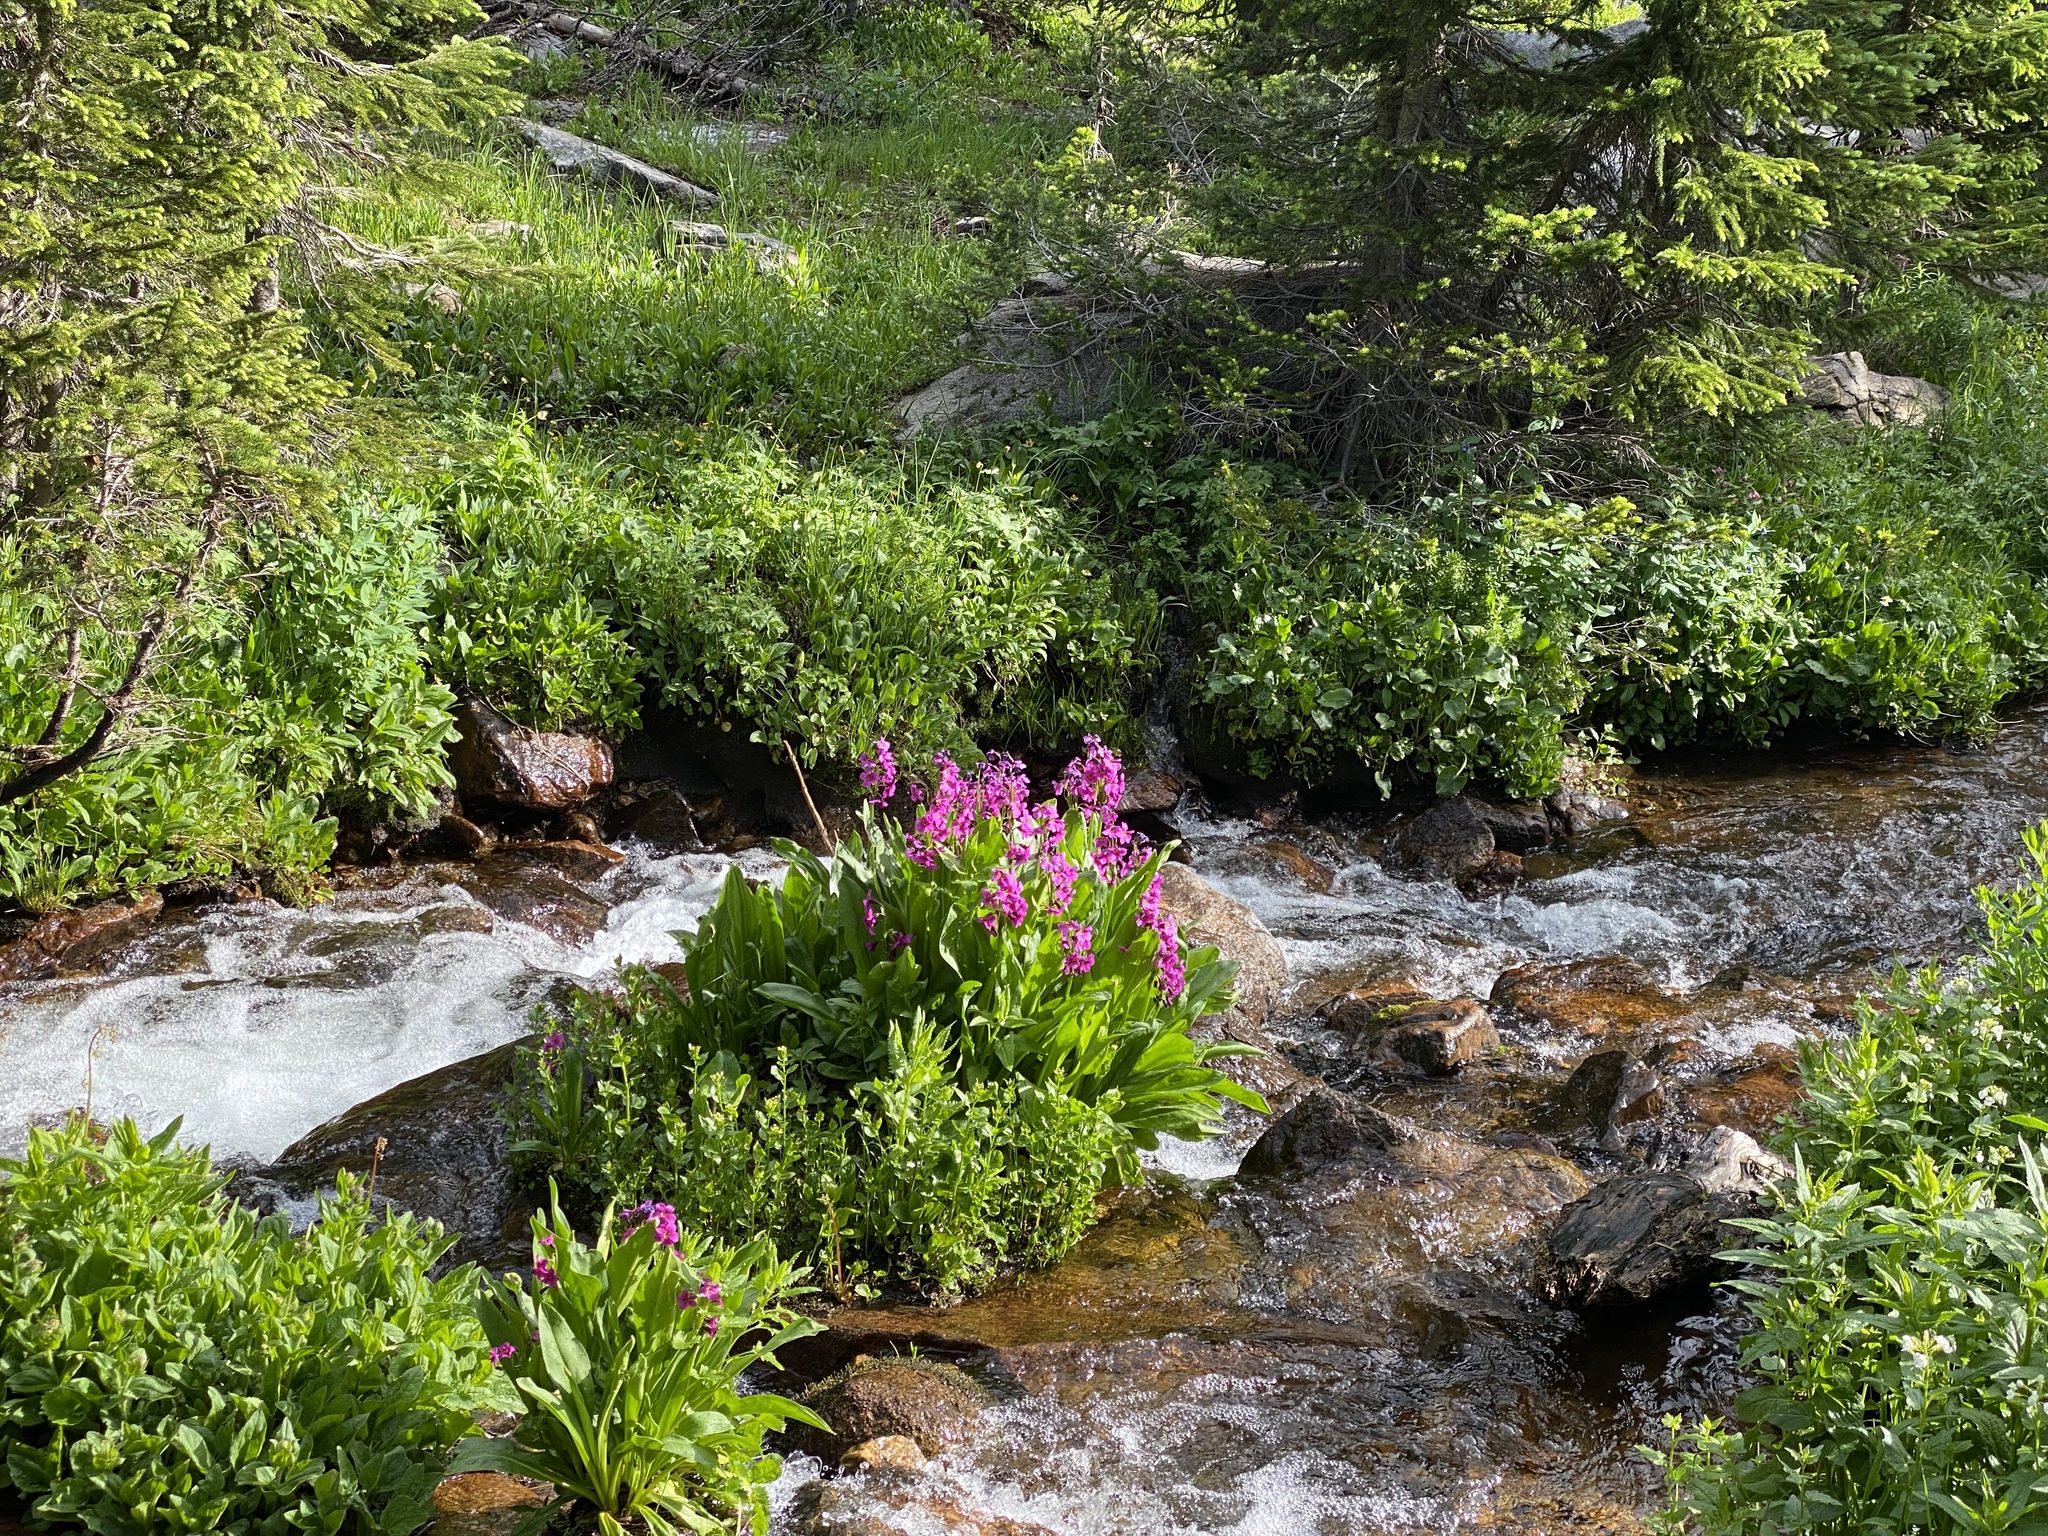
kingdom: Plantae
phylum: Tracheophyta
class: Magnoliopsida
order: Ericales
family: Primulaceae
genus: Primula
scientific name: Primula parryi
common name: Parry's primrose
